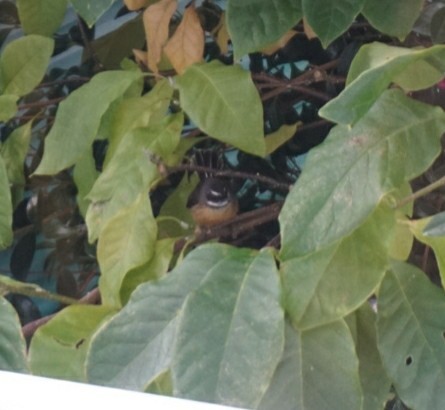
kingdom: Animalia
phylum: Chordata
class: Aves
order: Passeriformes
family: Rhipiduridae
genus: Rhipidura
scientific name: Rhipidura fuliginosa
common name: New zealand fantail
